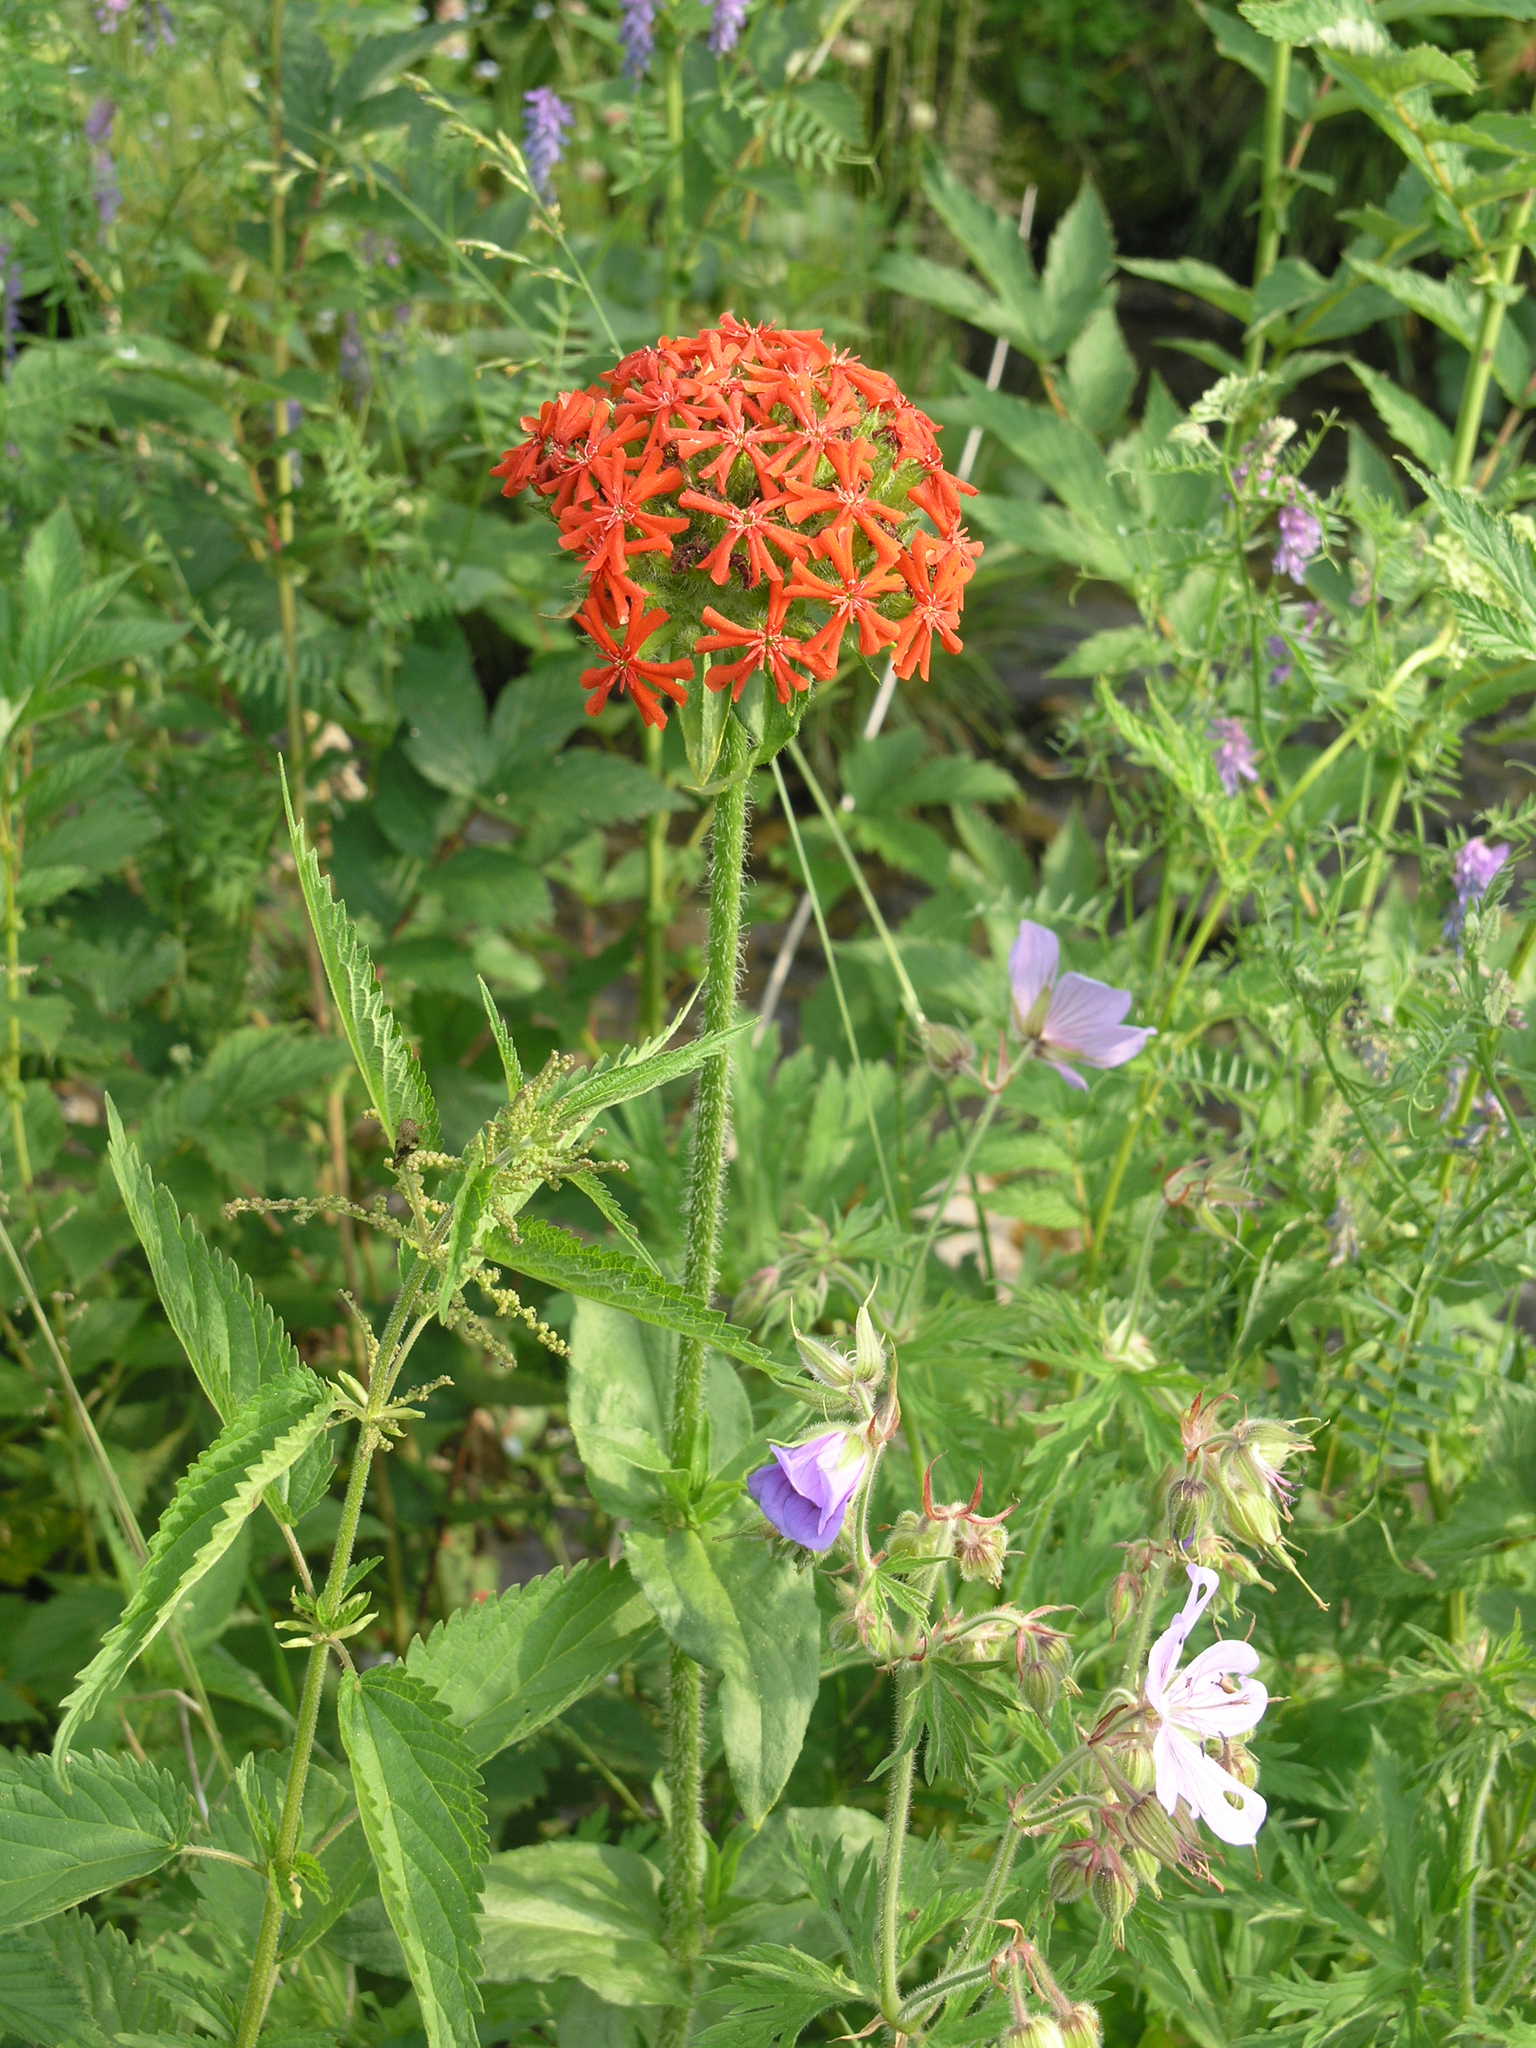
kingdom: Plantae
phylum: Tracheophyta
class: Magnoliopsida
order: Geraniales
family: Geraniaceae
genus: Geranium
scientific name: Geranium pratense
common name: Meadow crane's-bill
